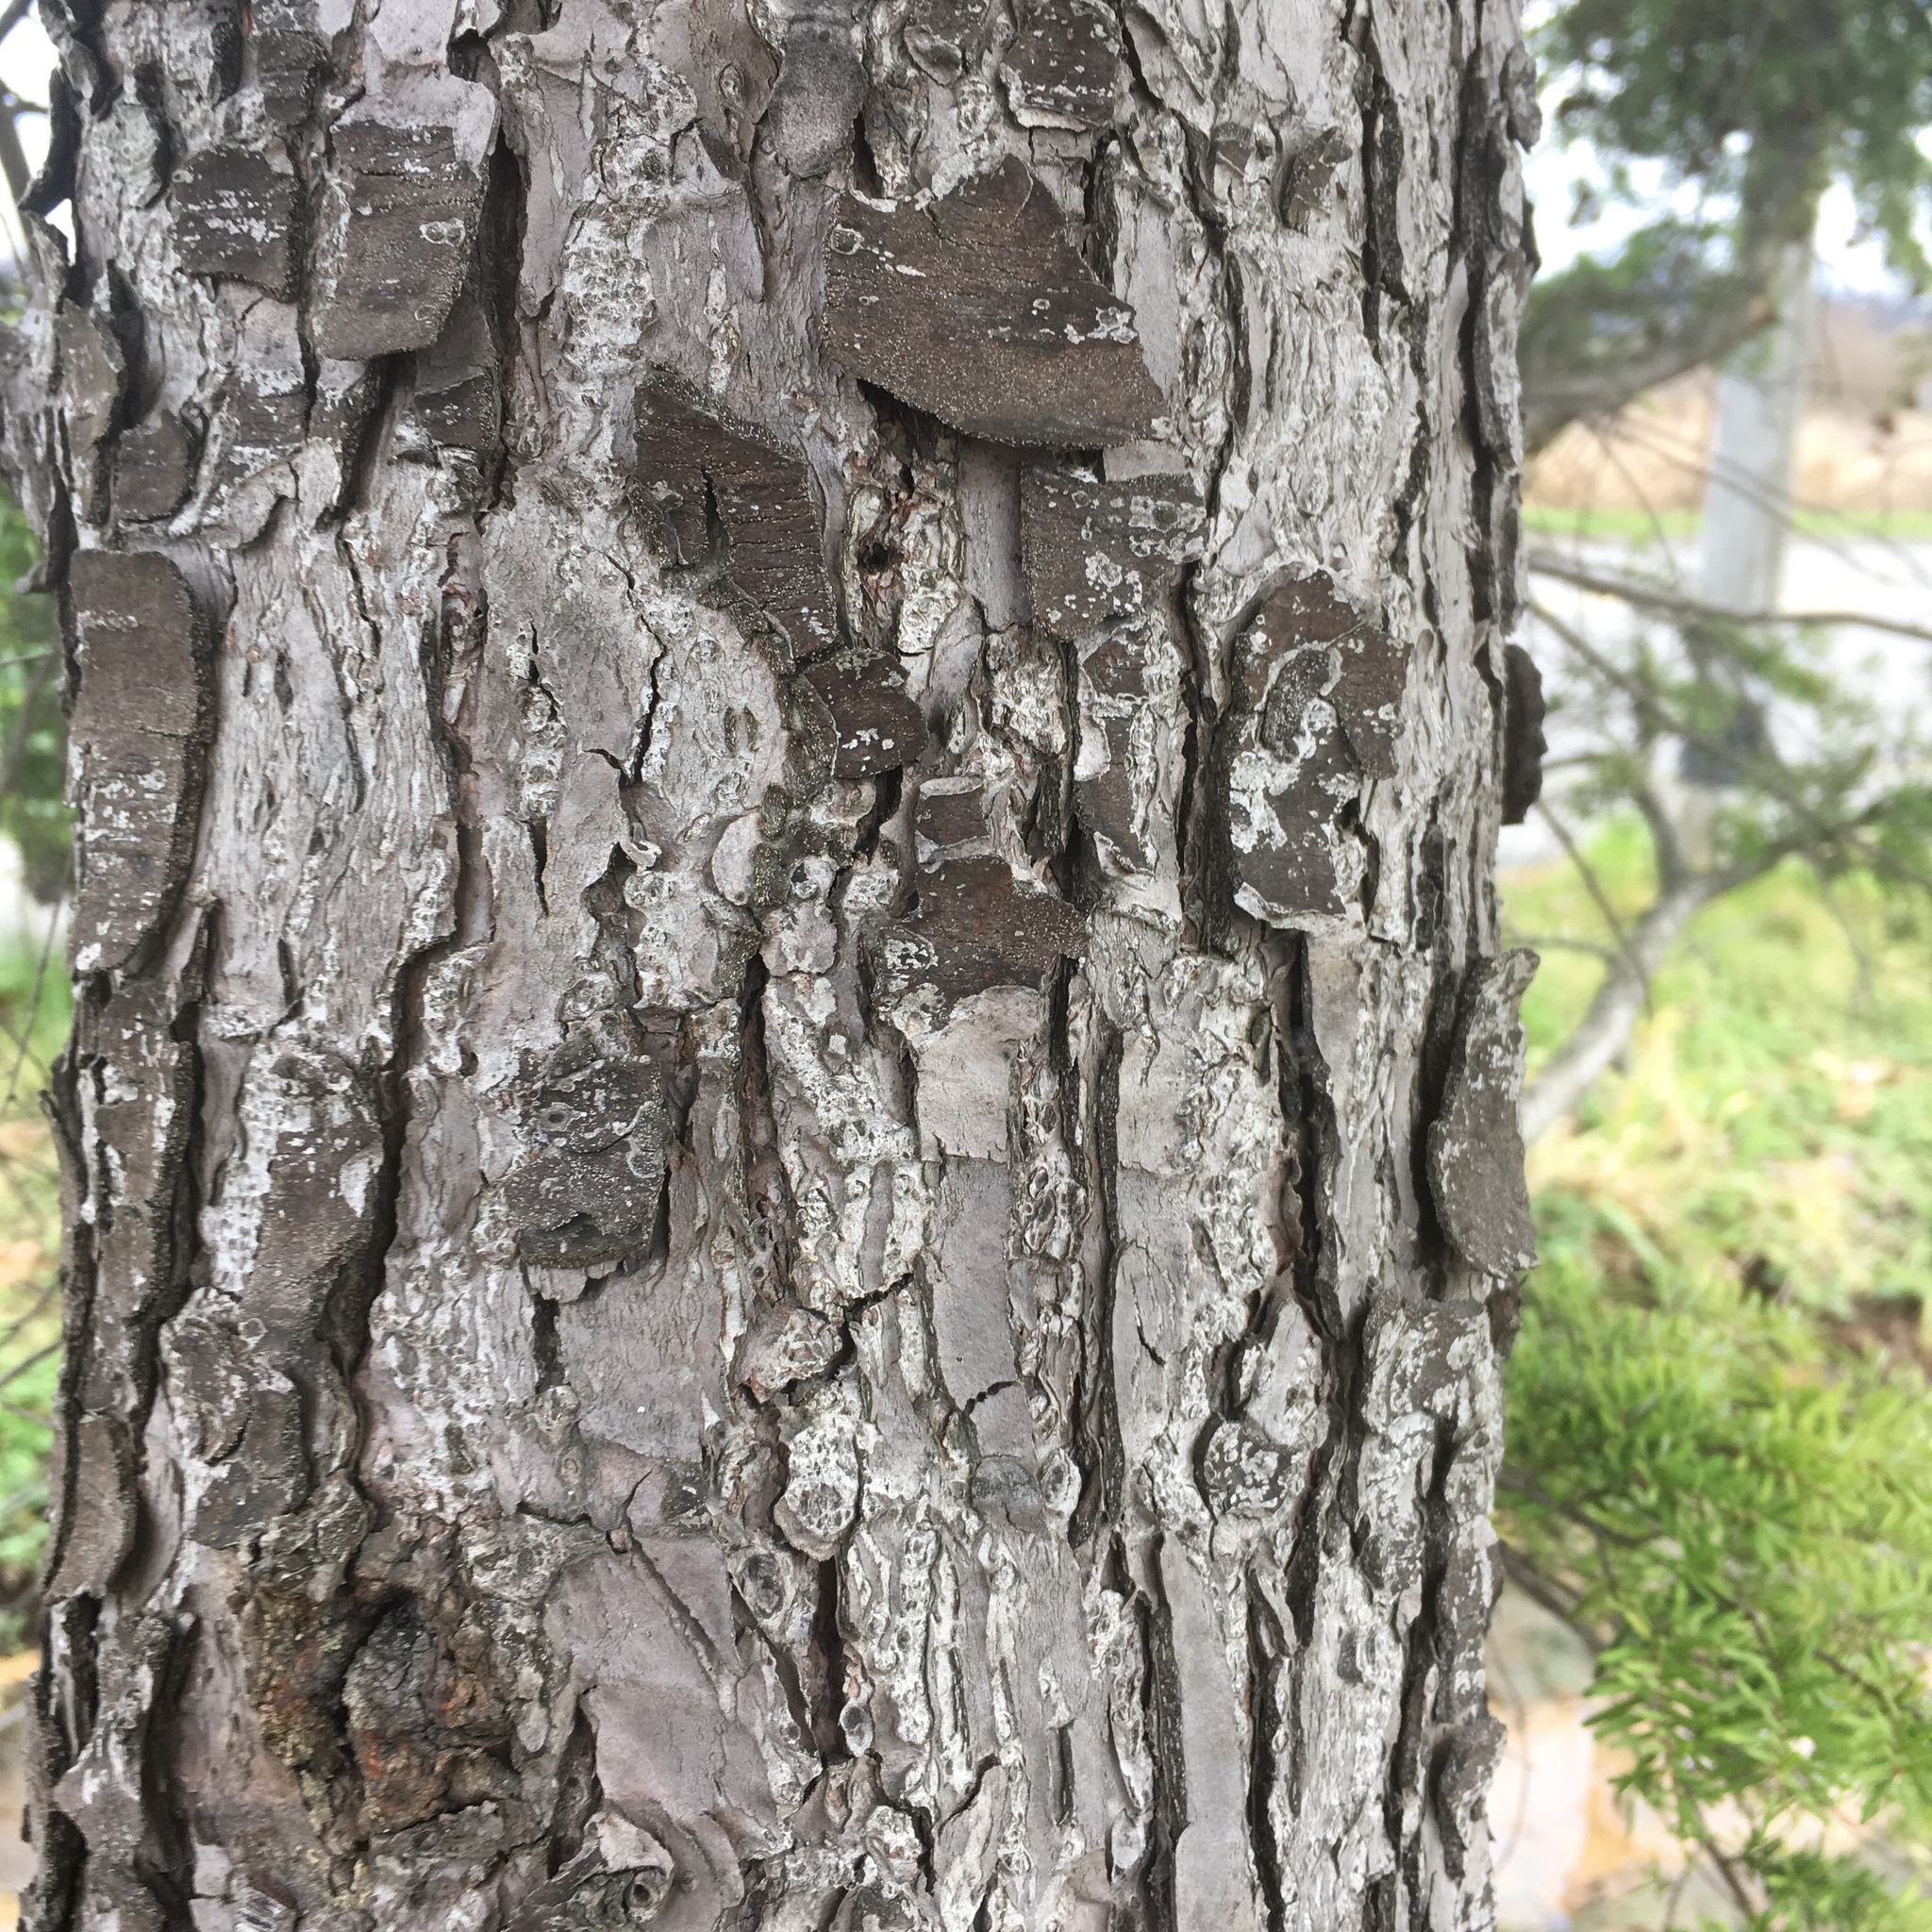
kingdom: Plantae
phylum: Tracheophyta
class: Pinopsida
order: Pinales
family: Pinaceae
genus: Tsuga
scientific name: Tsuga heterophylla
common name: Western hemlock
